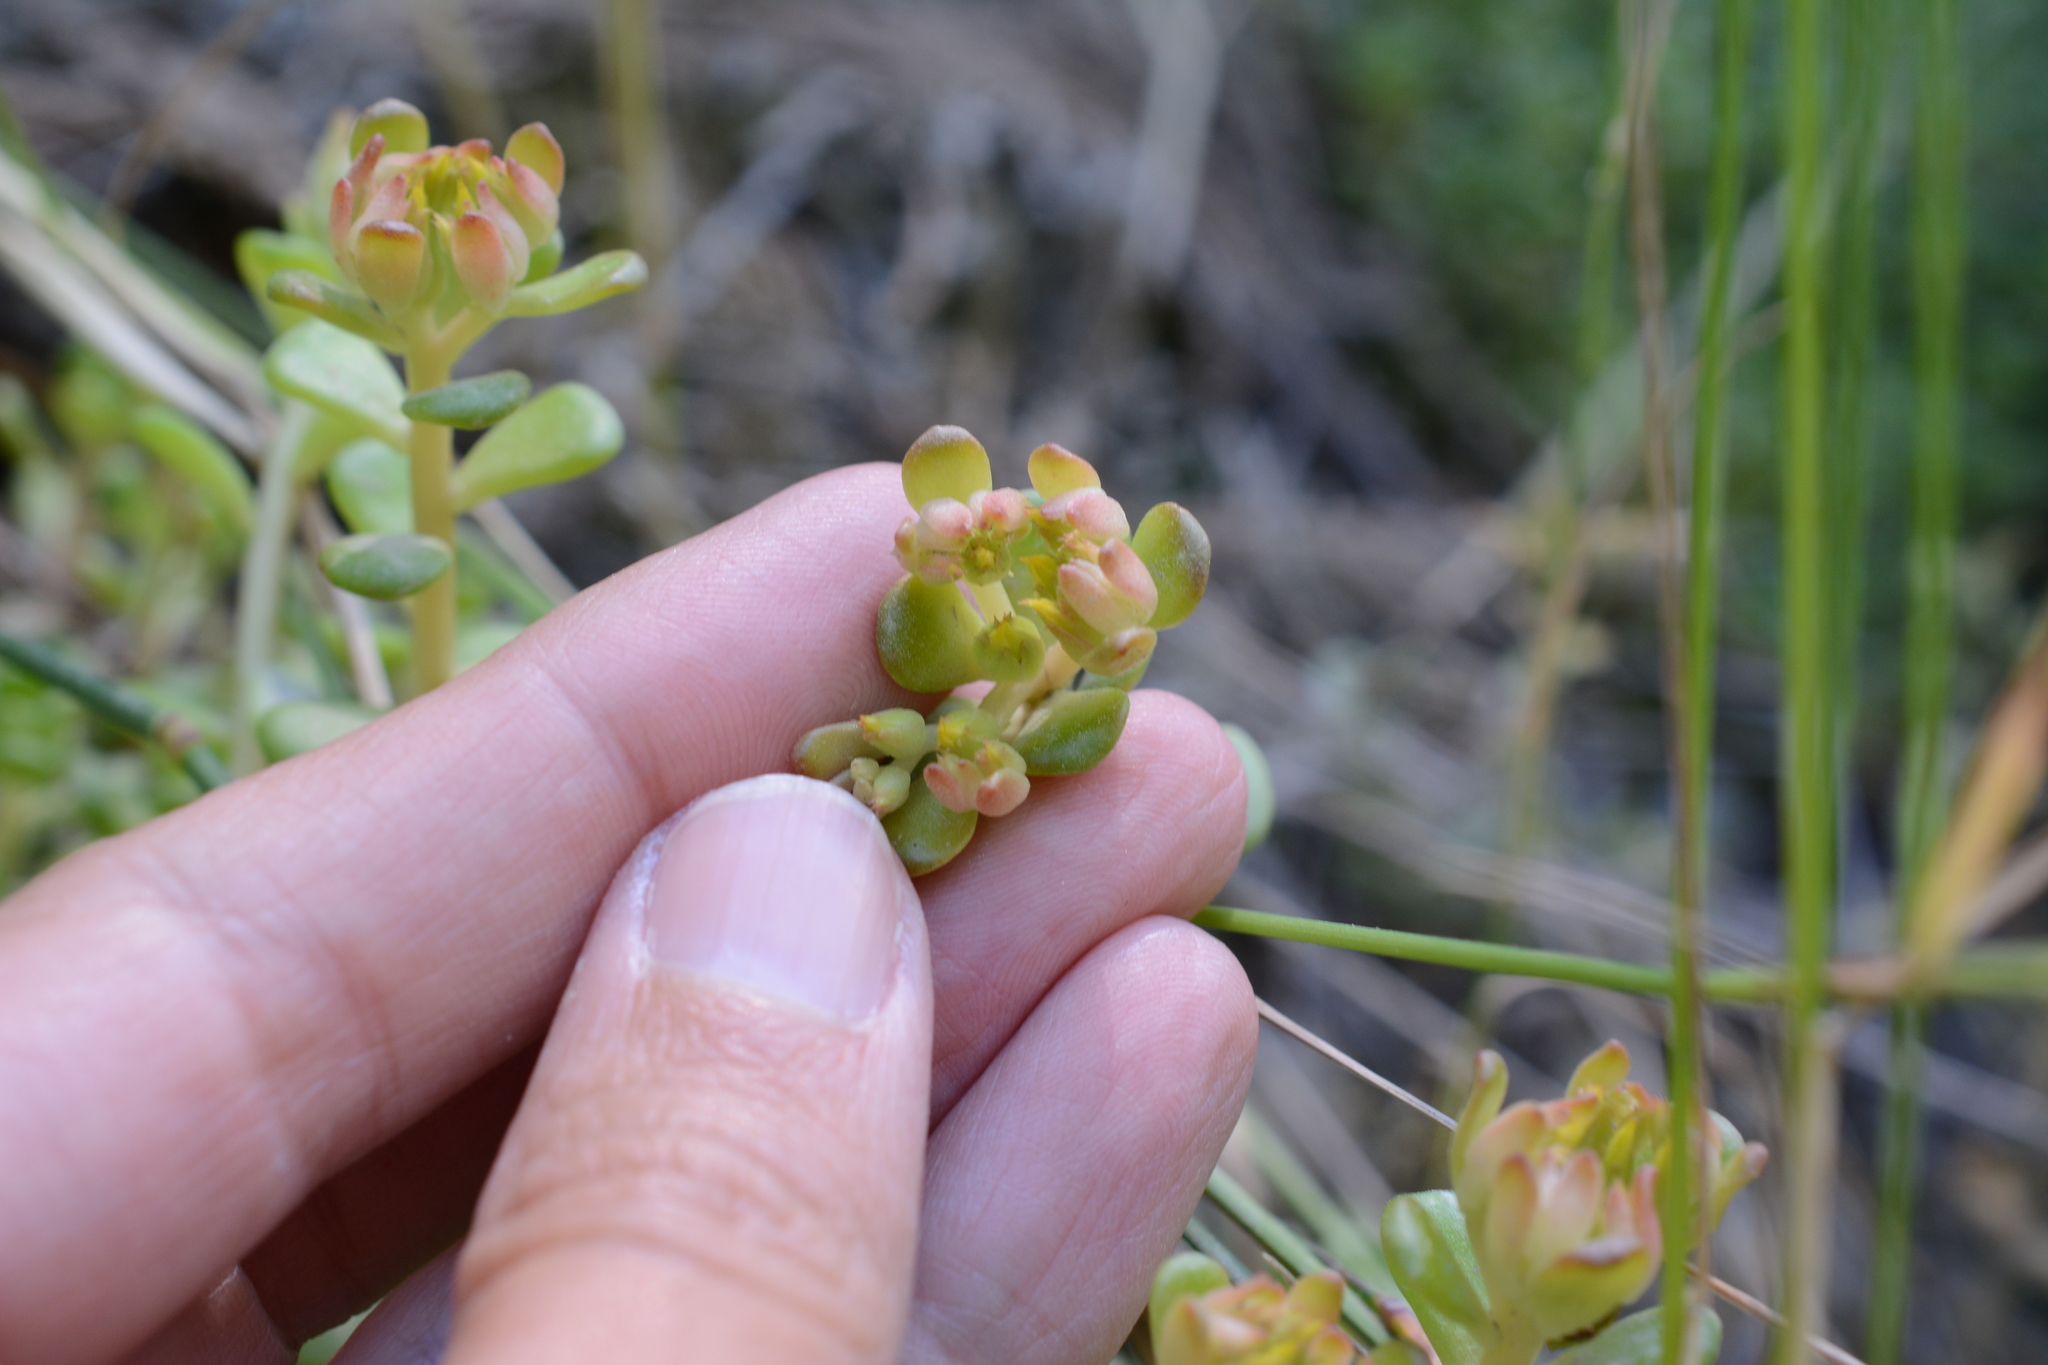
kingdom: Plantae
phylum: Tracheophyta
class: Magnoliopsida
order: Saxifragales
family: Crassulaceae
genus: Sedum
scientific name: Sedum oreganum
